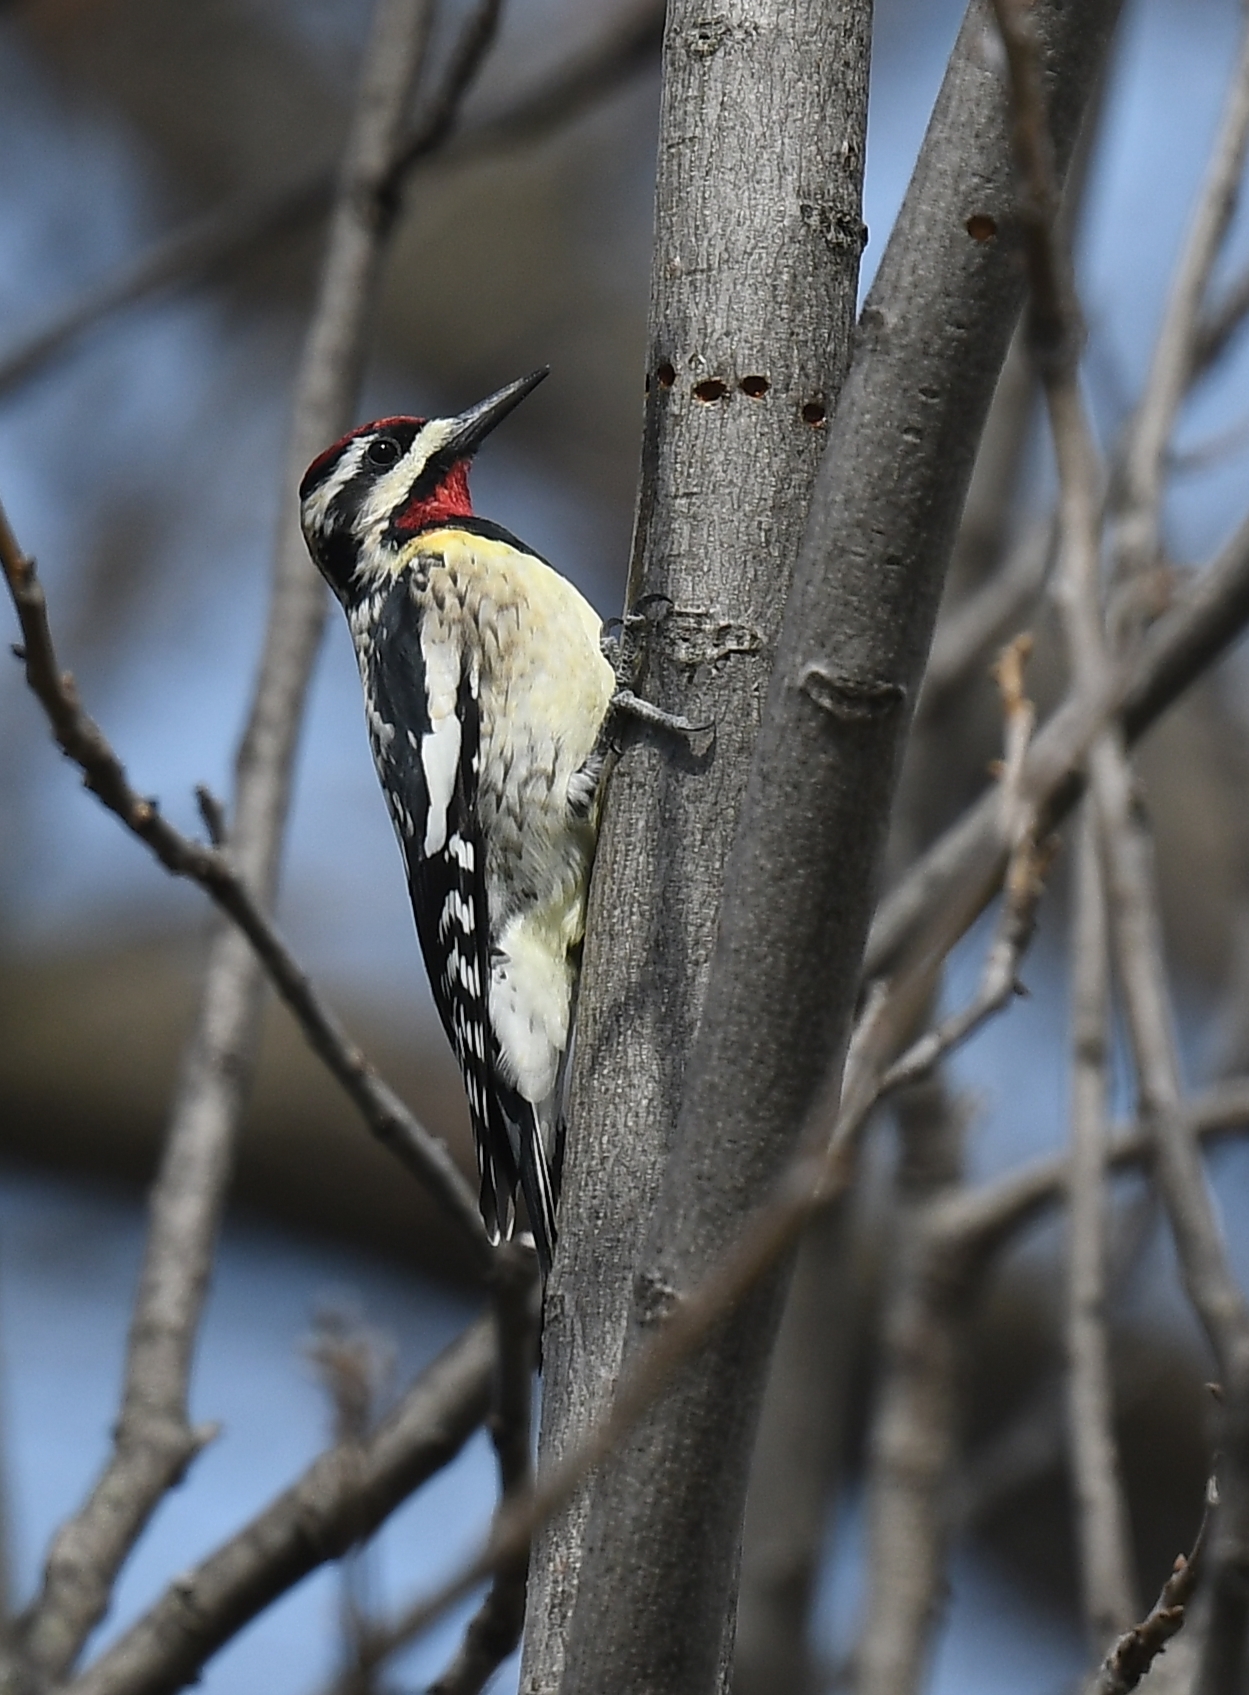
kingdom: Animalia
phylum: Chordata
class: Aves
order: Piciformes
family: Picidae
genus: Sphyrapicus
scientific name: Sphyrapicus varius
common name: Yellow-bellied sapsucker
